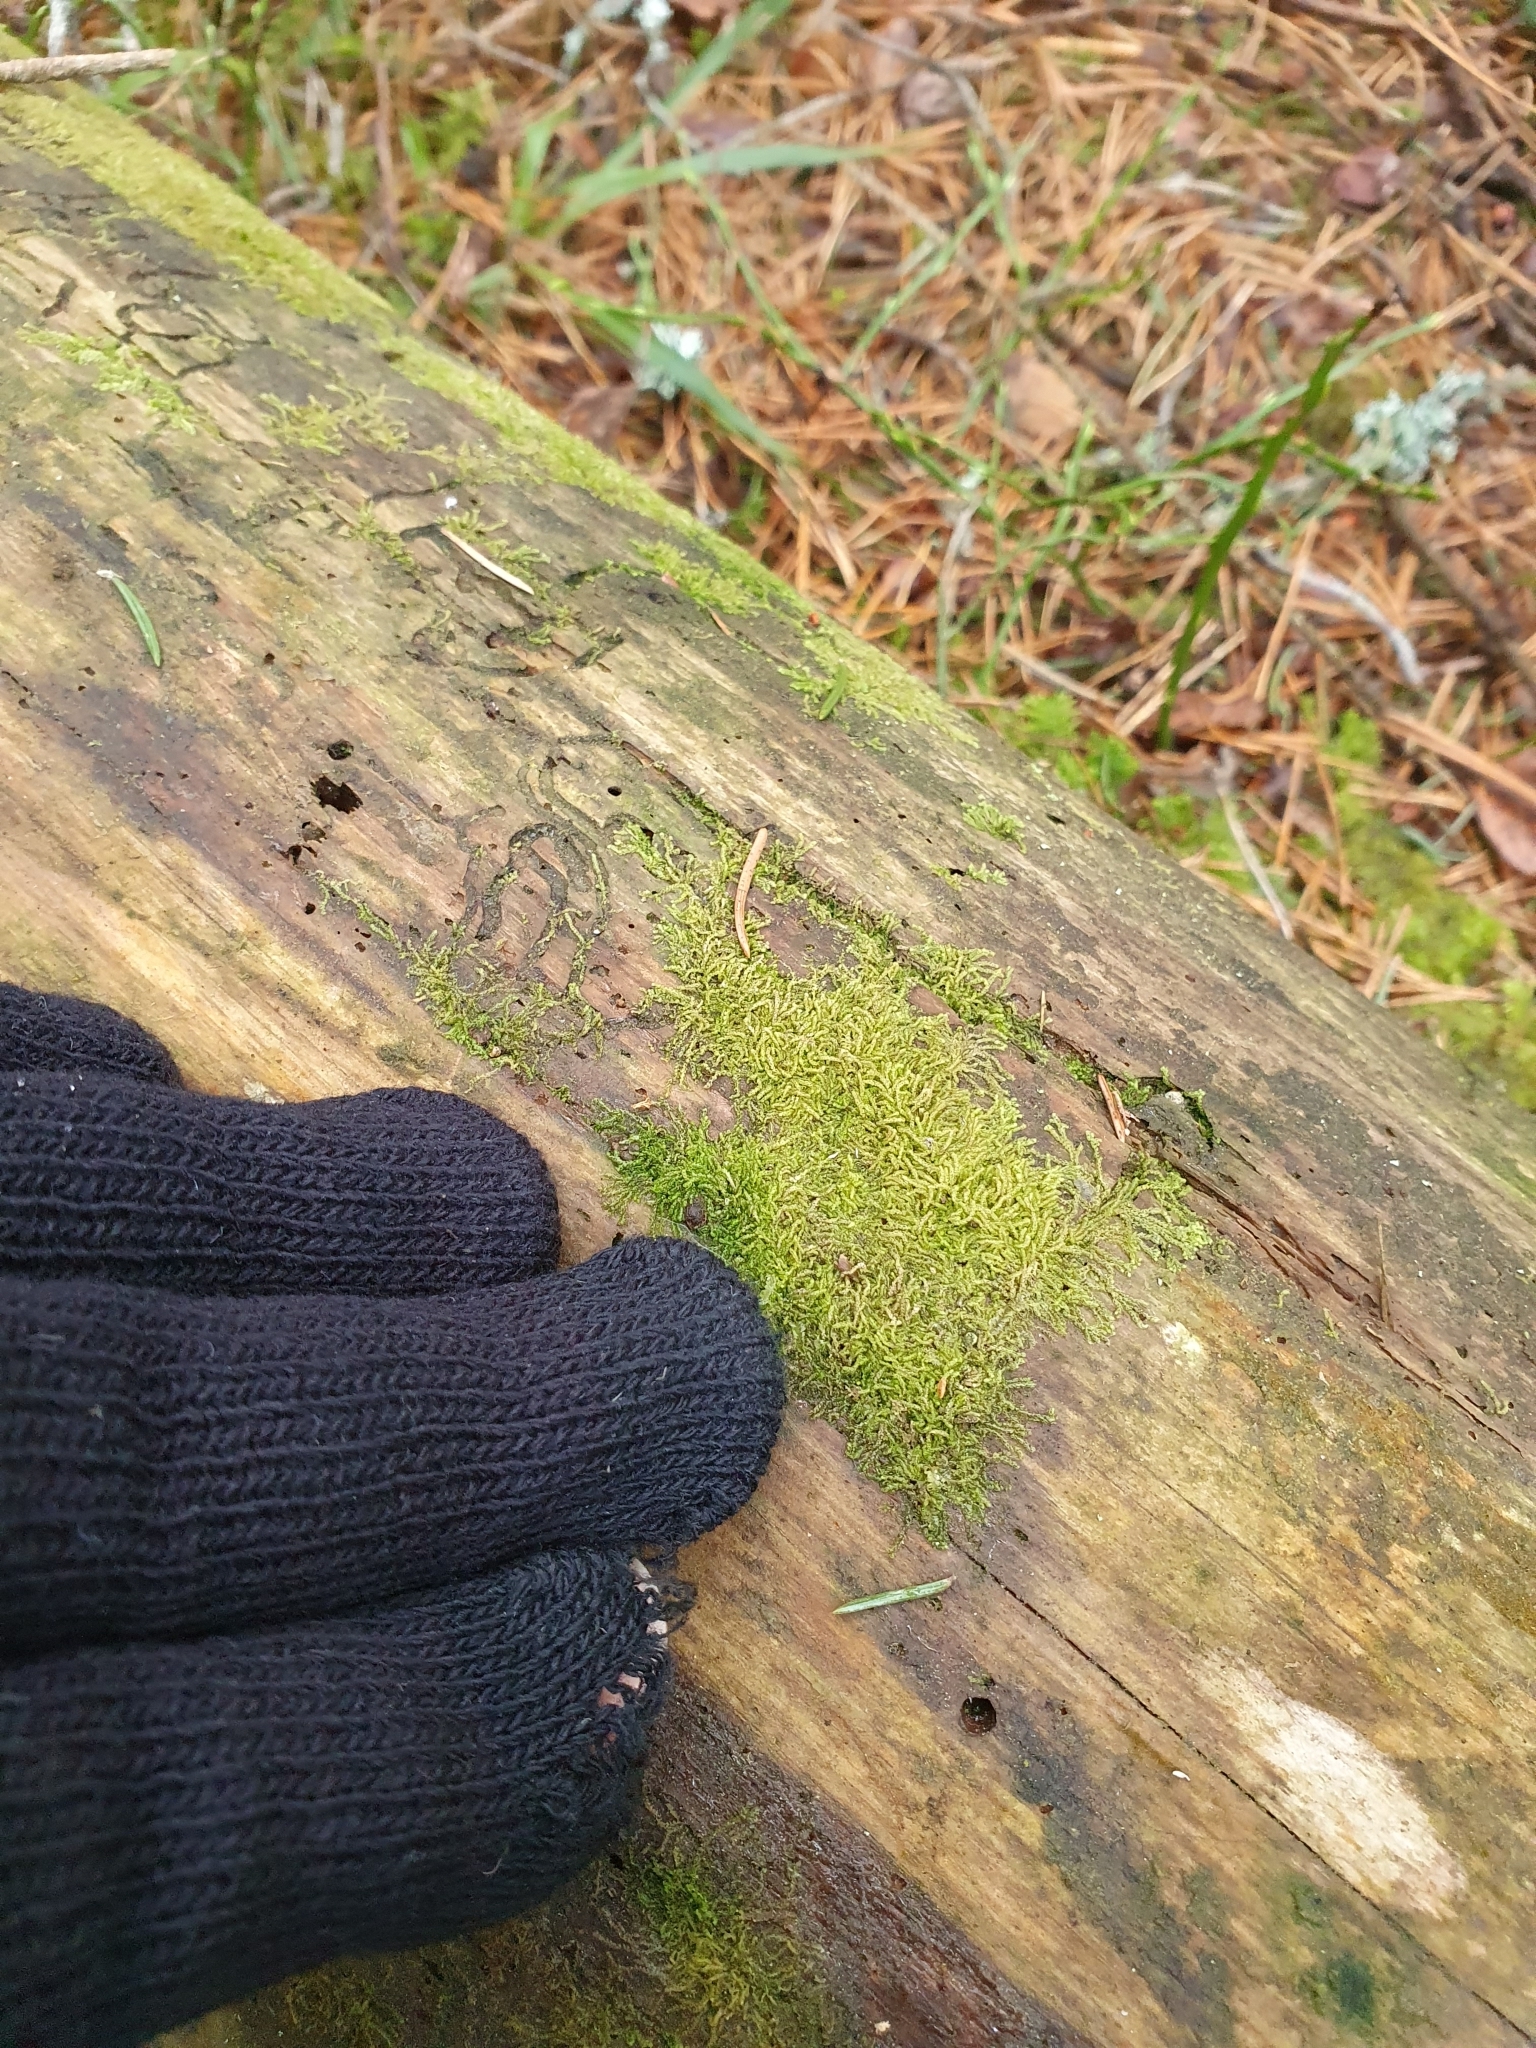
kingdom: Plantae
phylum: Marchantiophyta
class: Jungermanniopsida
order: Jungermanniales
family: Cephaloziaceae
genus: Nowellia
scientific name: Nowellia curvifolia
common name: Wood rustwort
